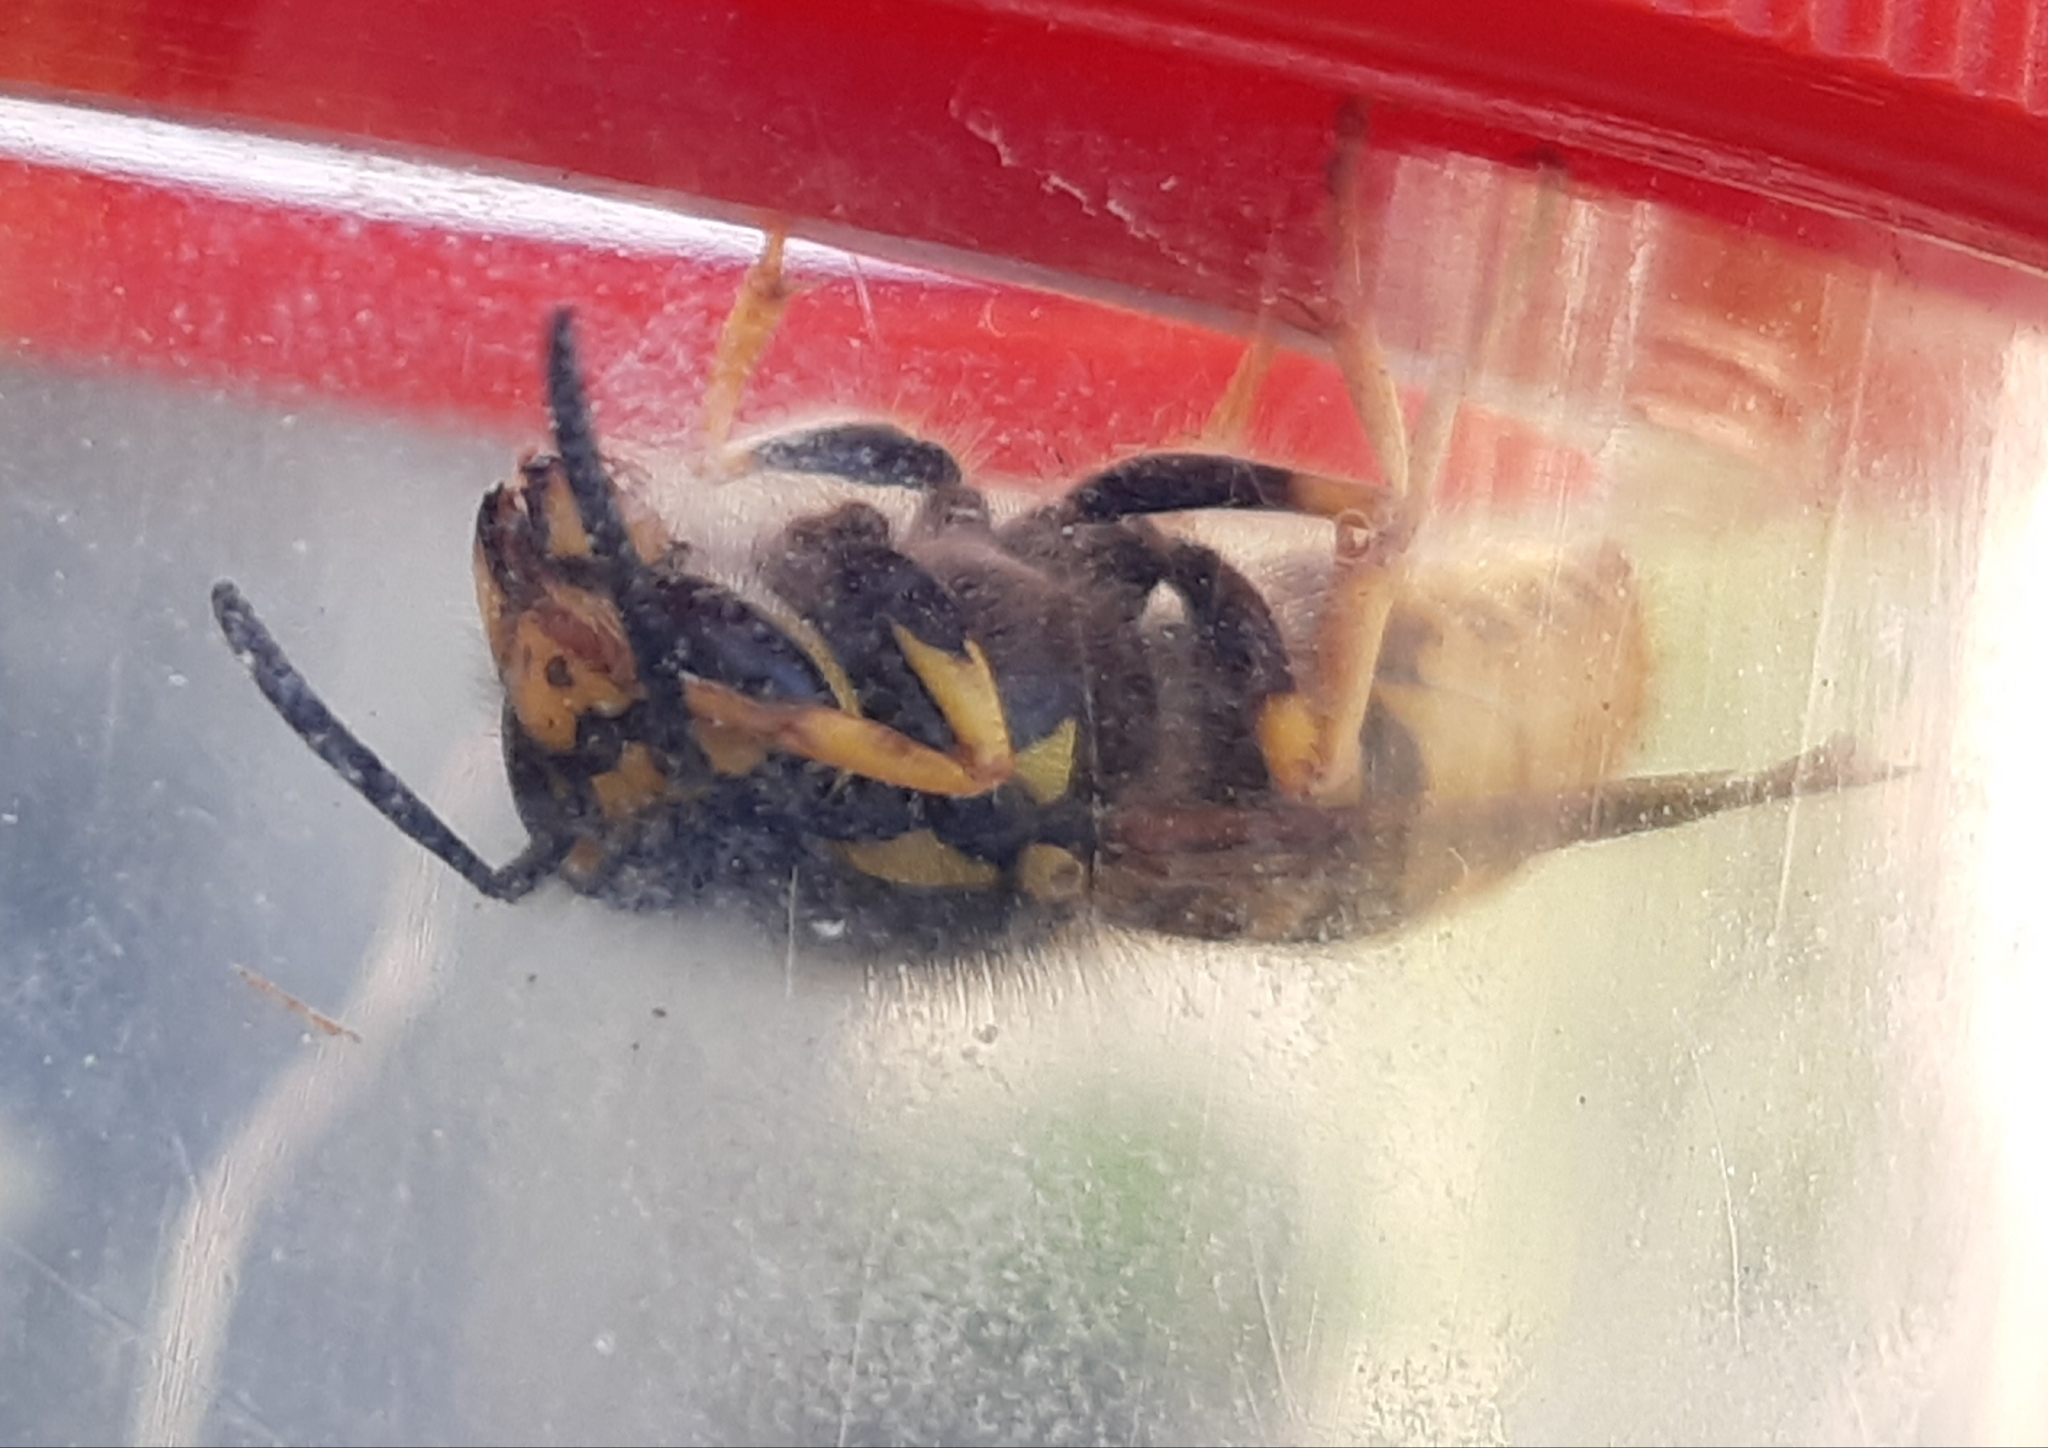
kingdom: Animalia
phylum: Arthropoda
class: Insecta
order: Hymenoptera
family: Vespidae
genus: Vespula
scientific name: Vespula germanica
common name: German wasp
